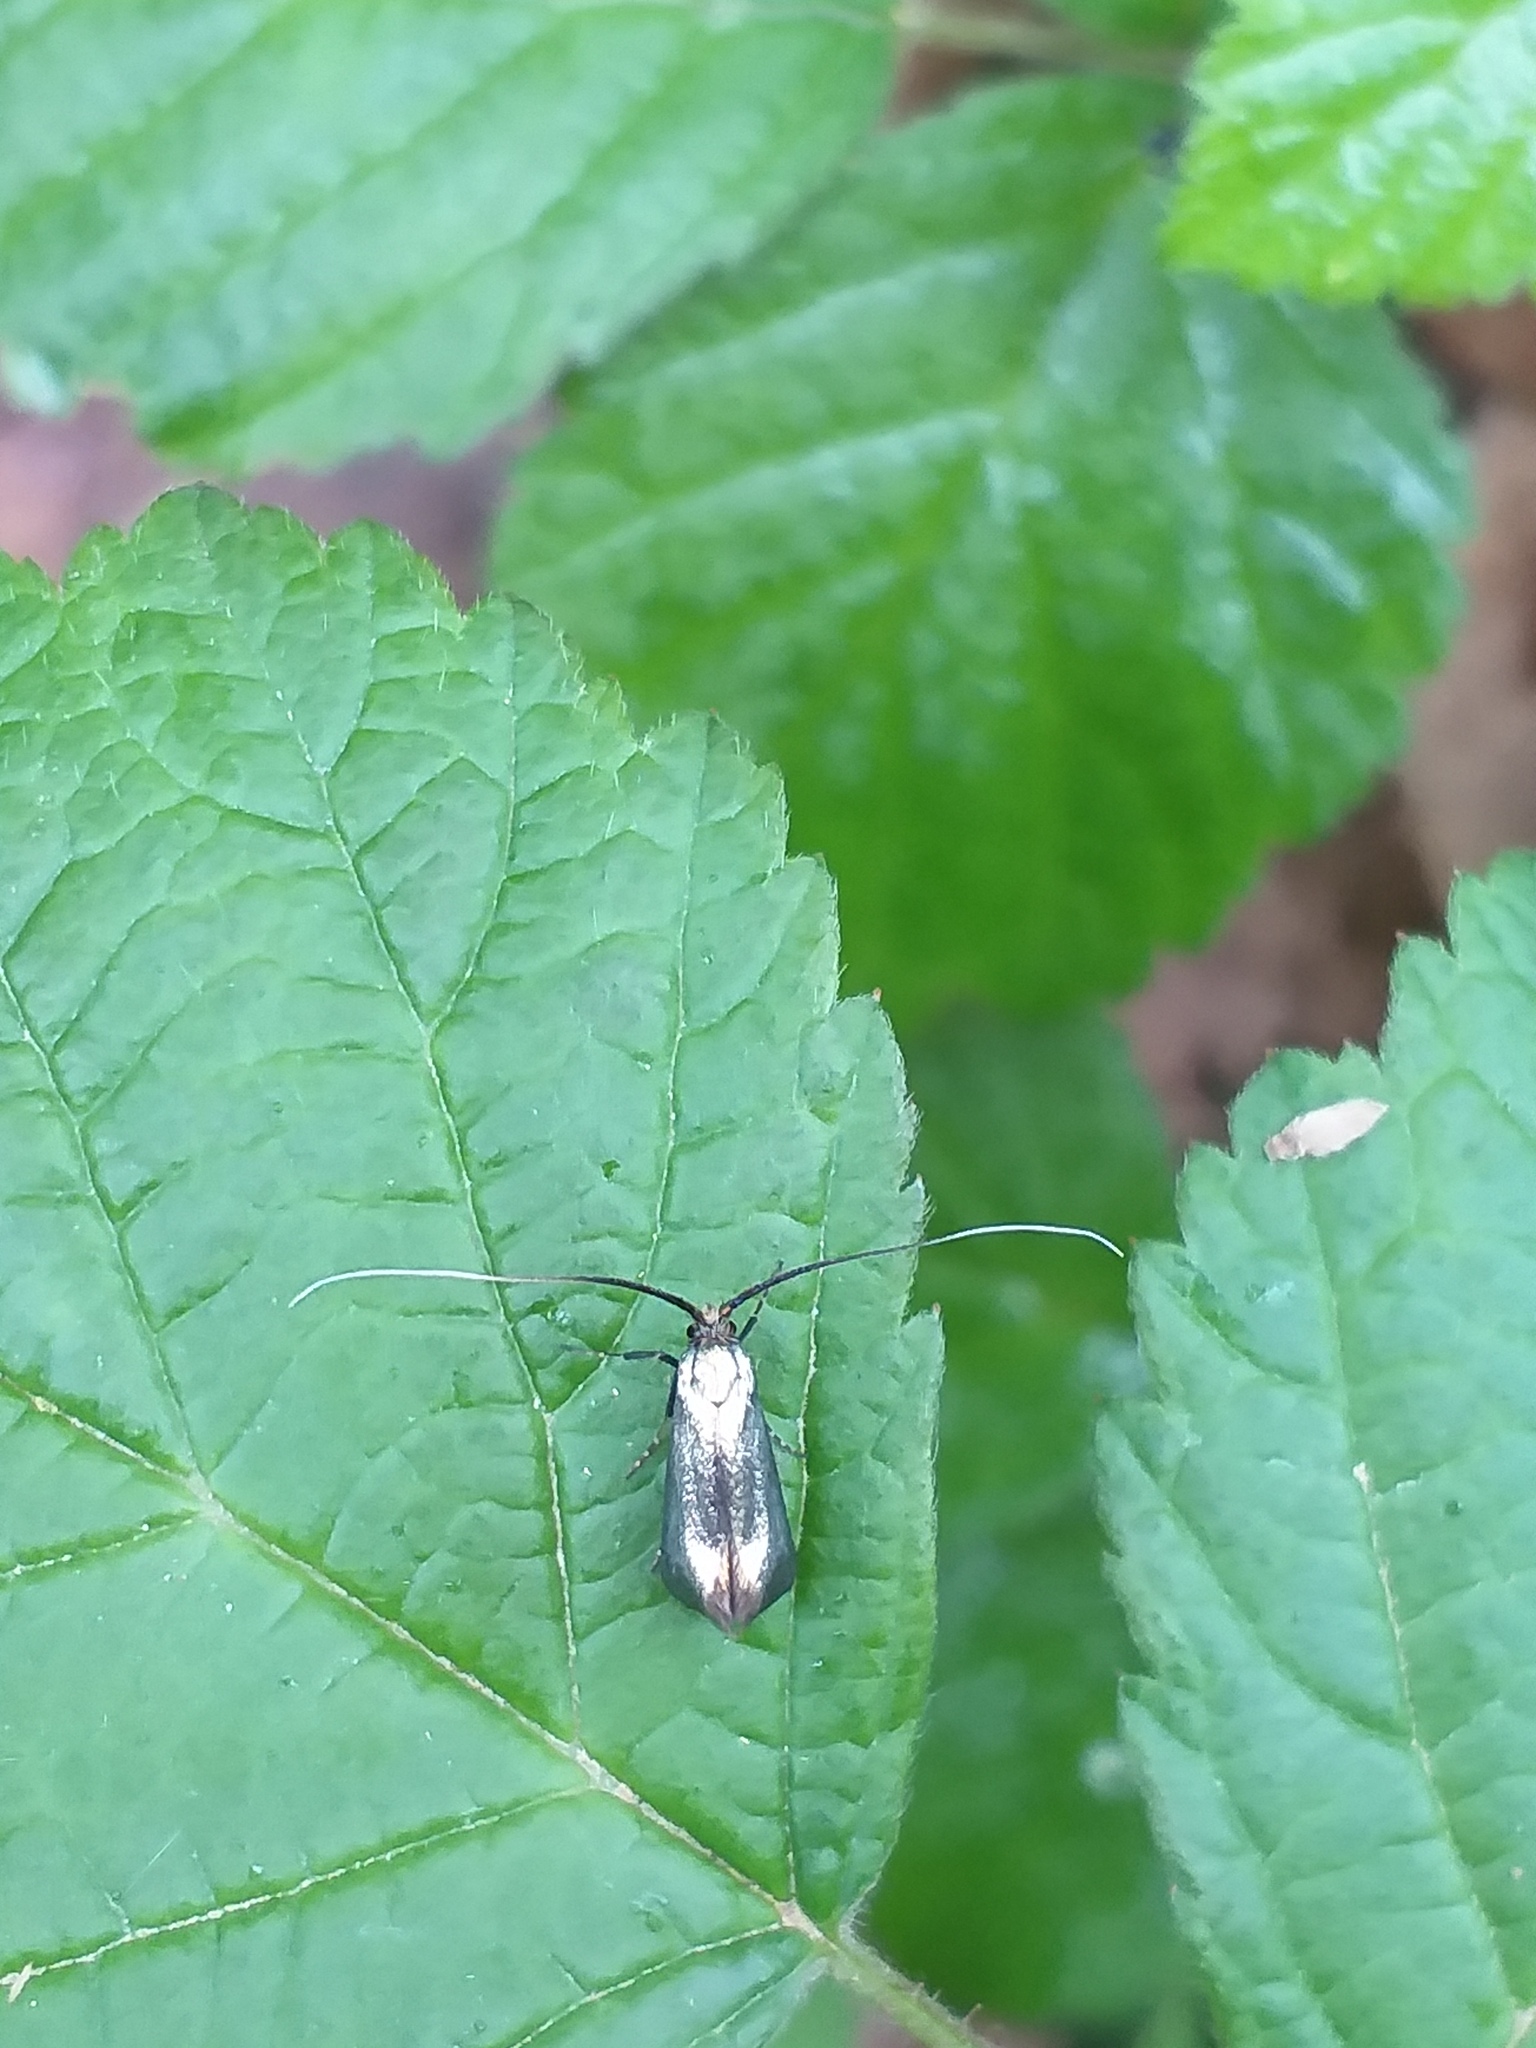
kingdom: Animalia
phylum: Arthropoda
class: Insecta
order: Lepidoptera
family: Adelidae
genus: Adela
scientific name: Adela viridella
